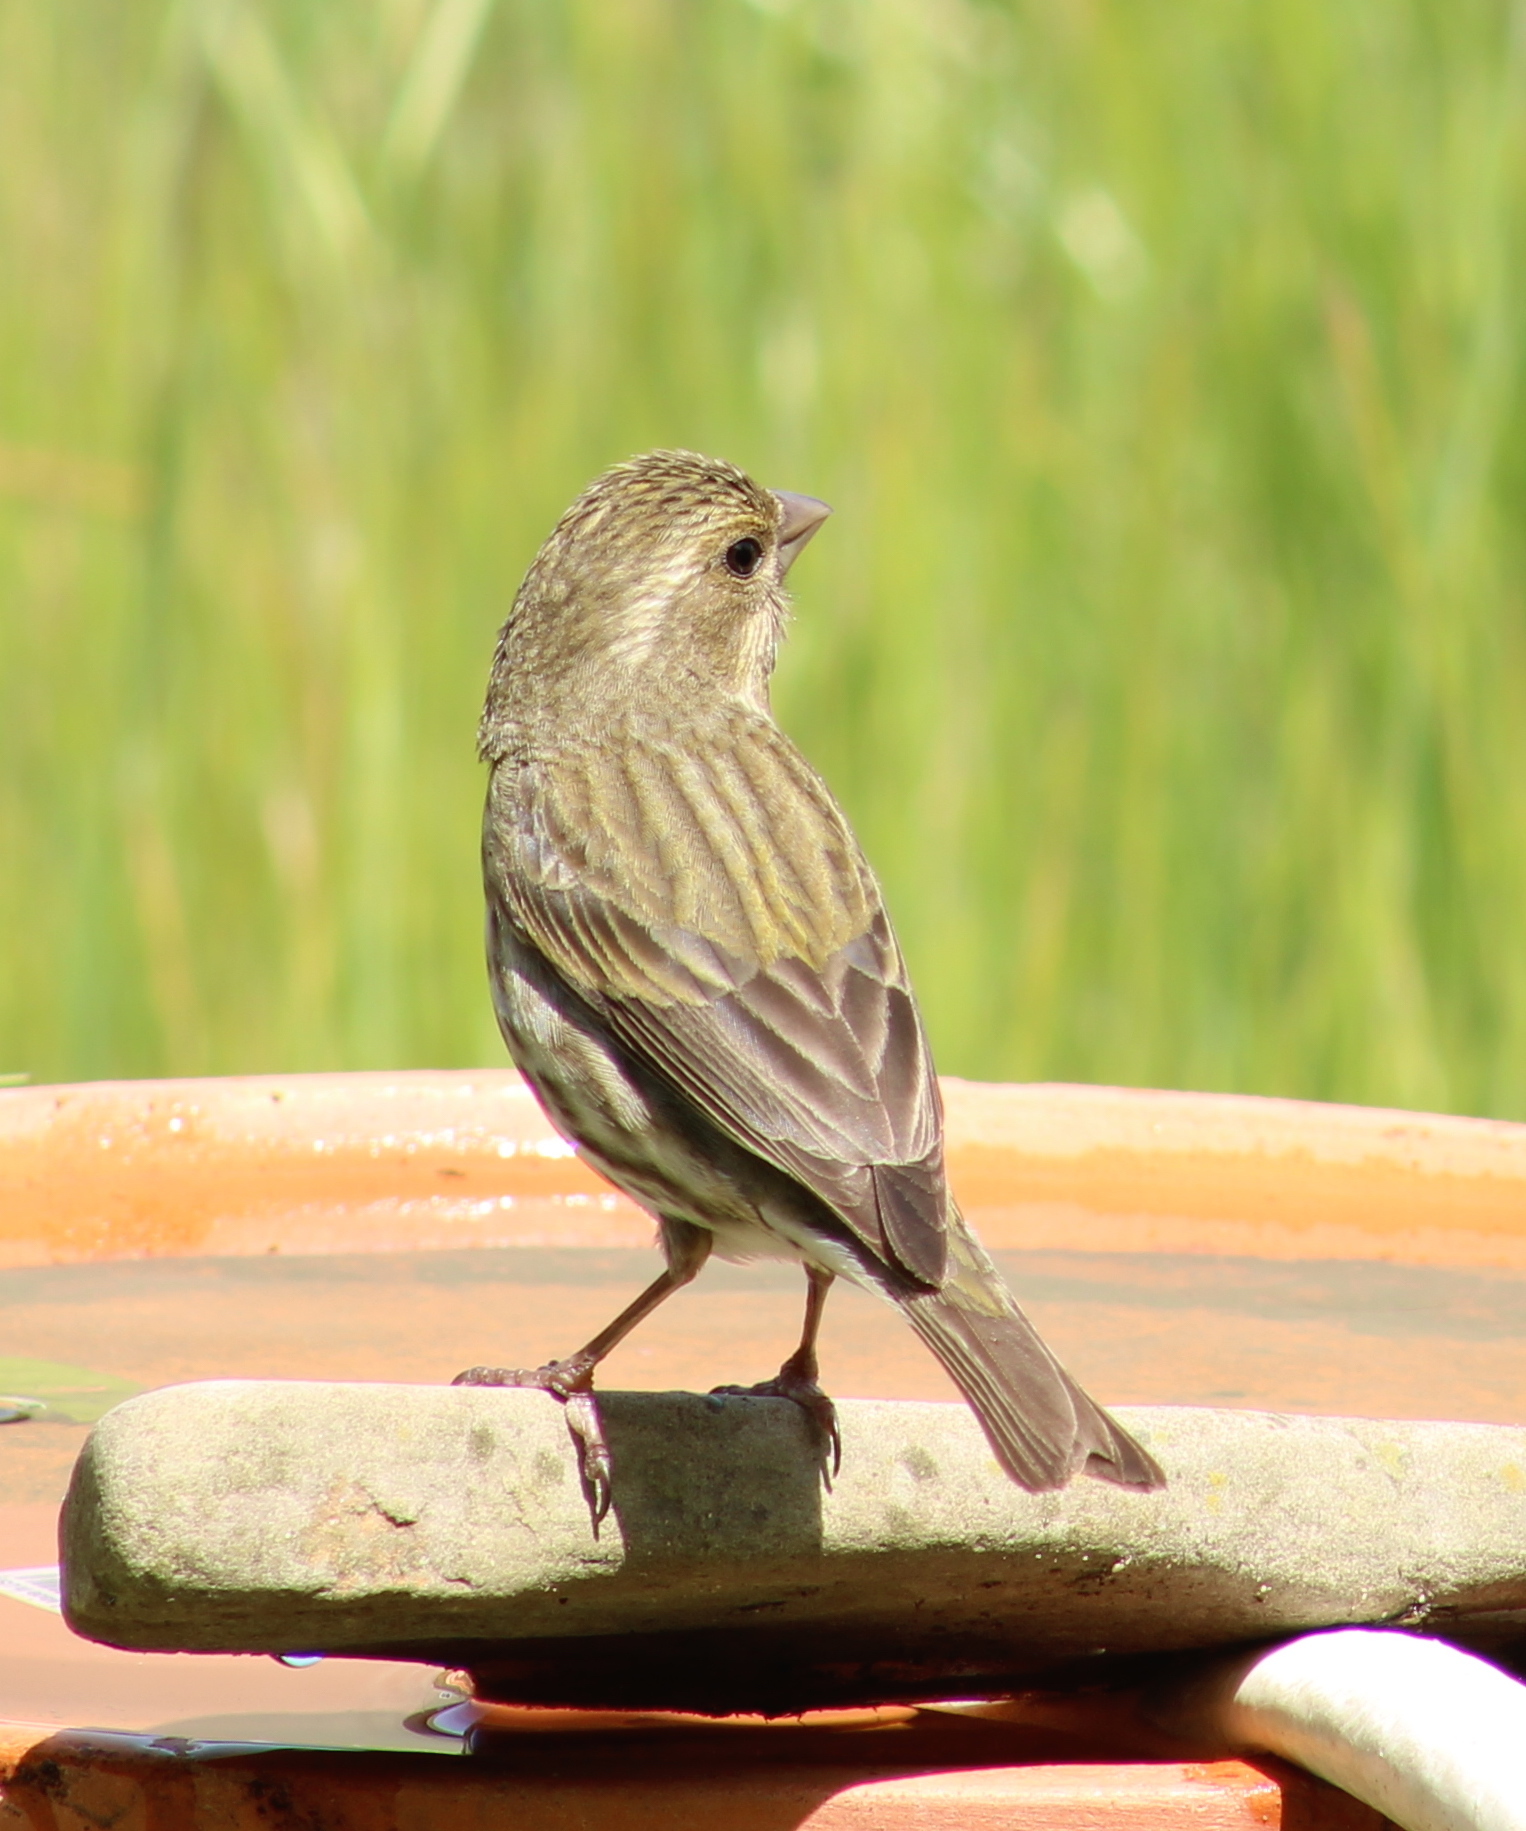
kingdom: Animalia
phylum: Chordata
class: Aves
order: Passeriformes
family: Fringillidae
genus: Haemorhous
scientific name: Haemorhous purpureus
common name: Purple finch
